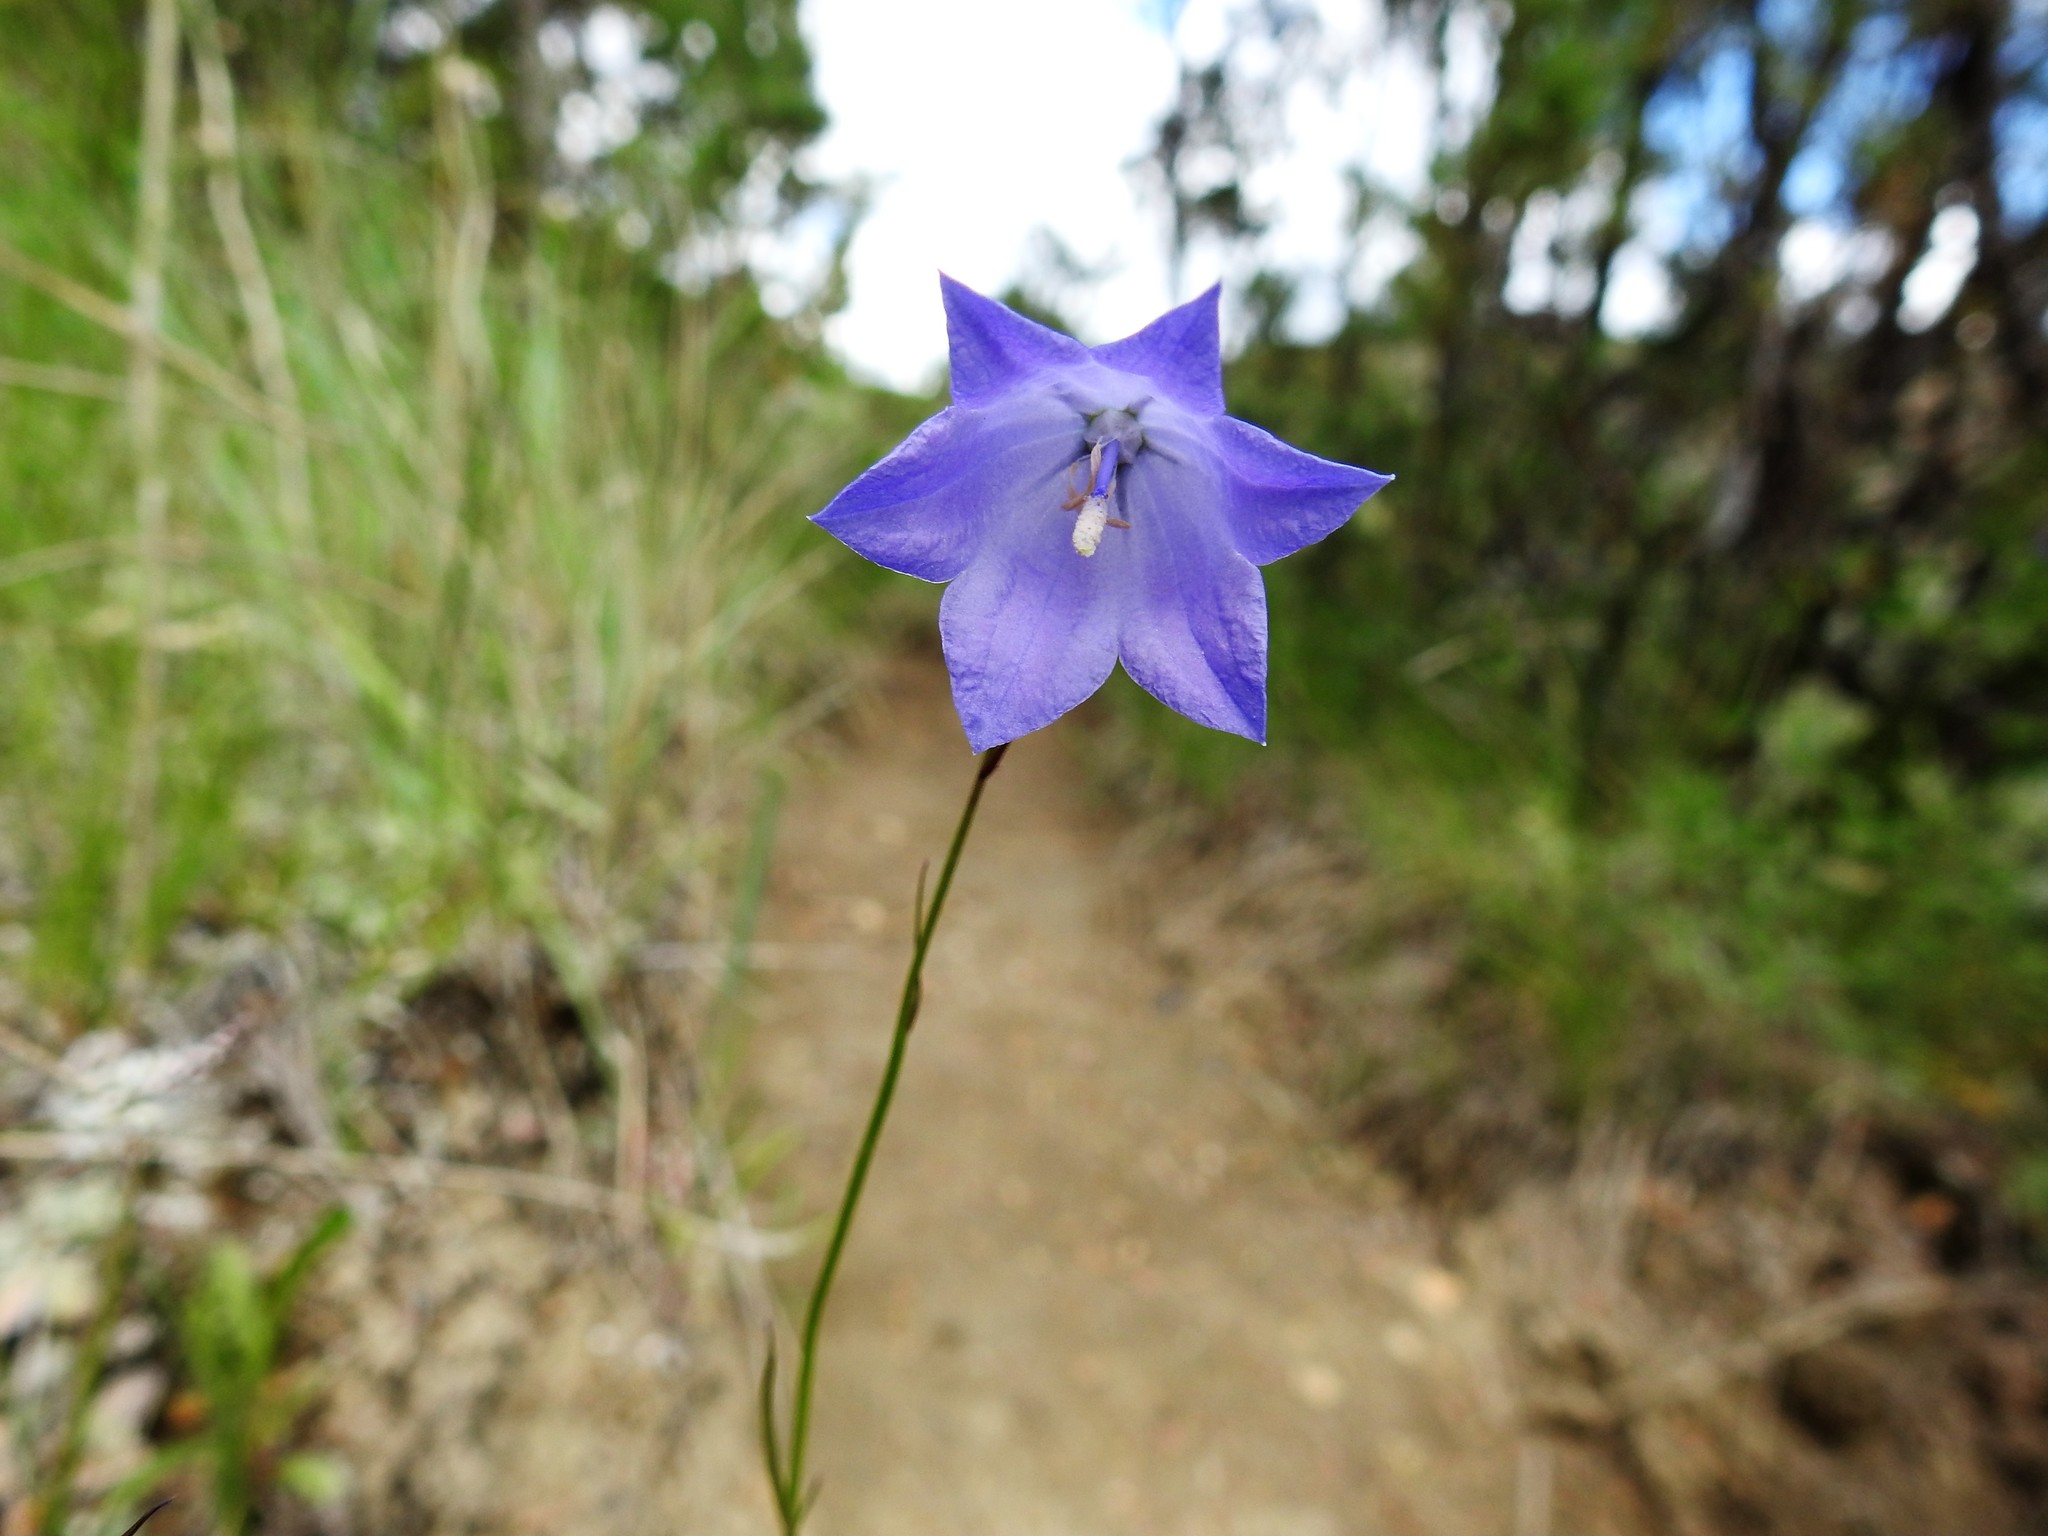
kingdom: Plantae
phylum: Tracheophyta
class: Magnoliopsida
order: Asterales
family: Campanulaceae
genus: Campanula
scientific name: Campanula petiolata
